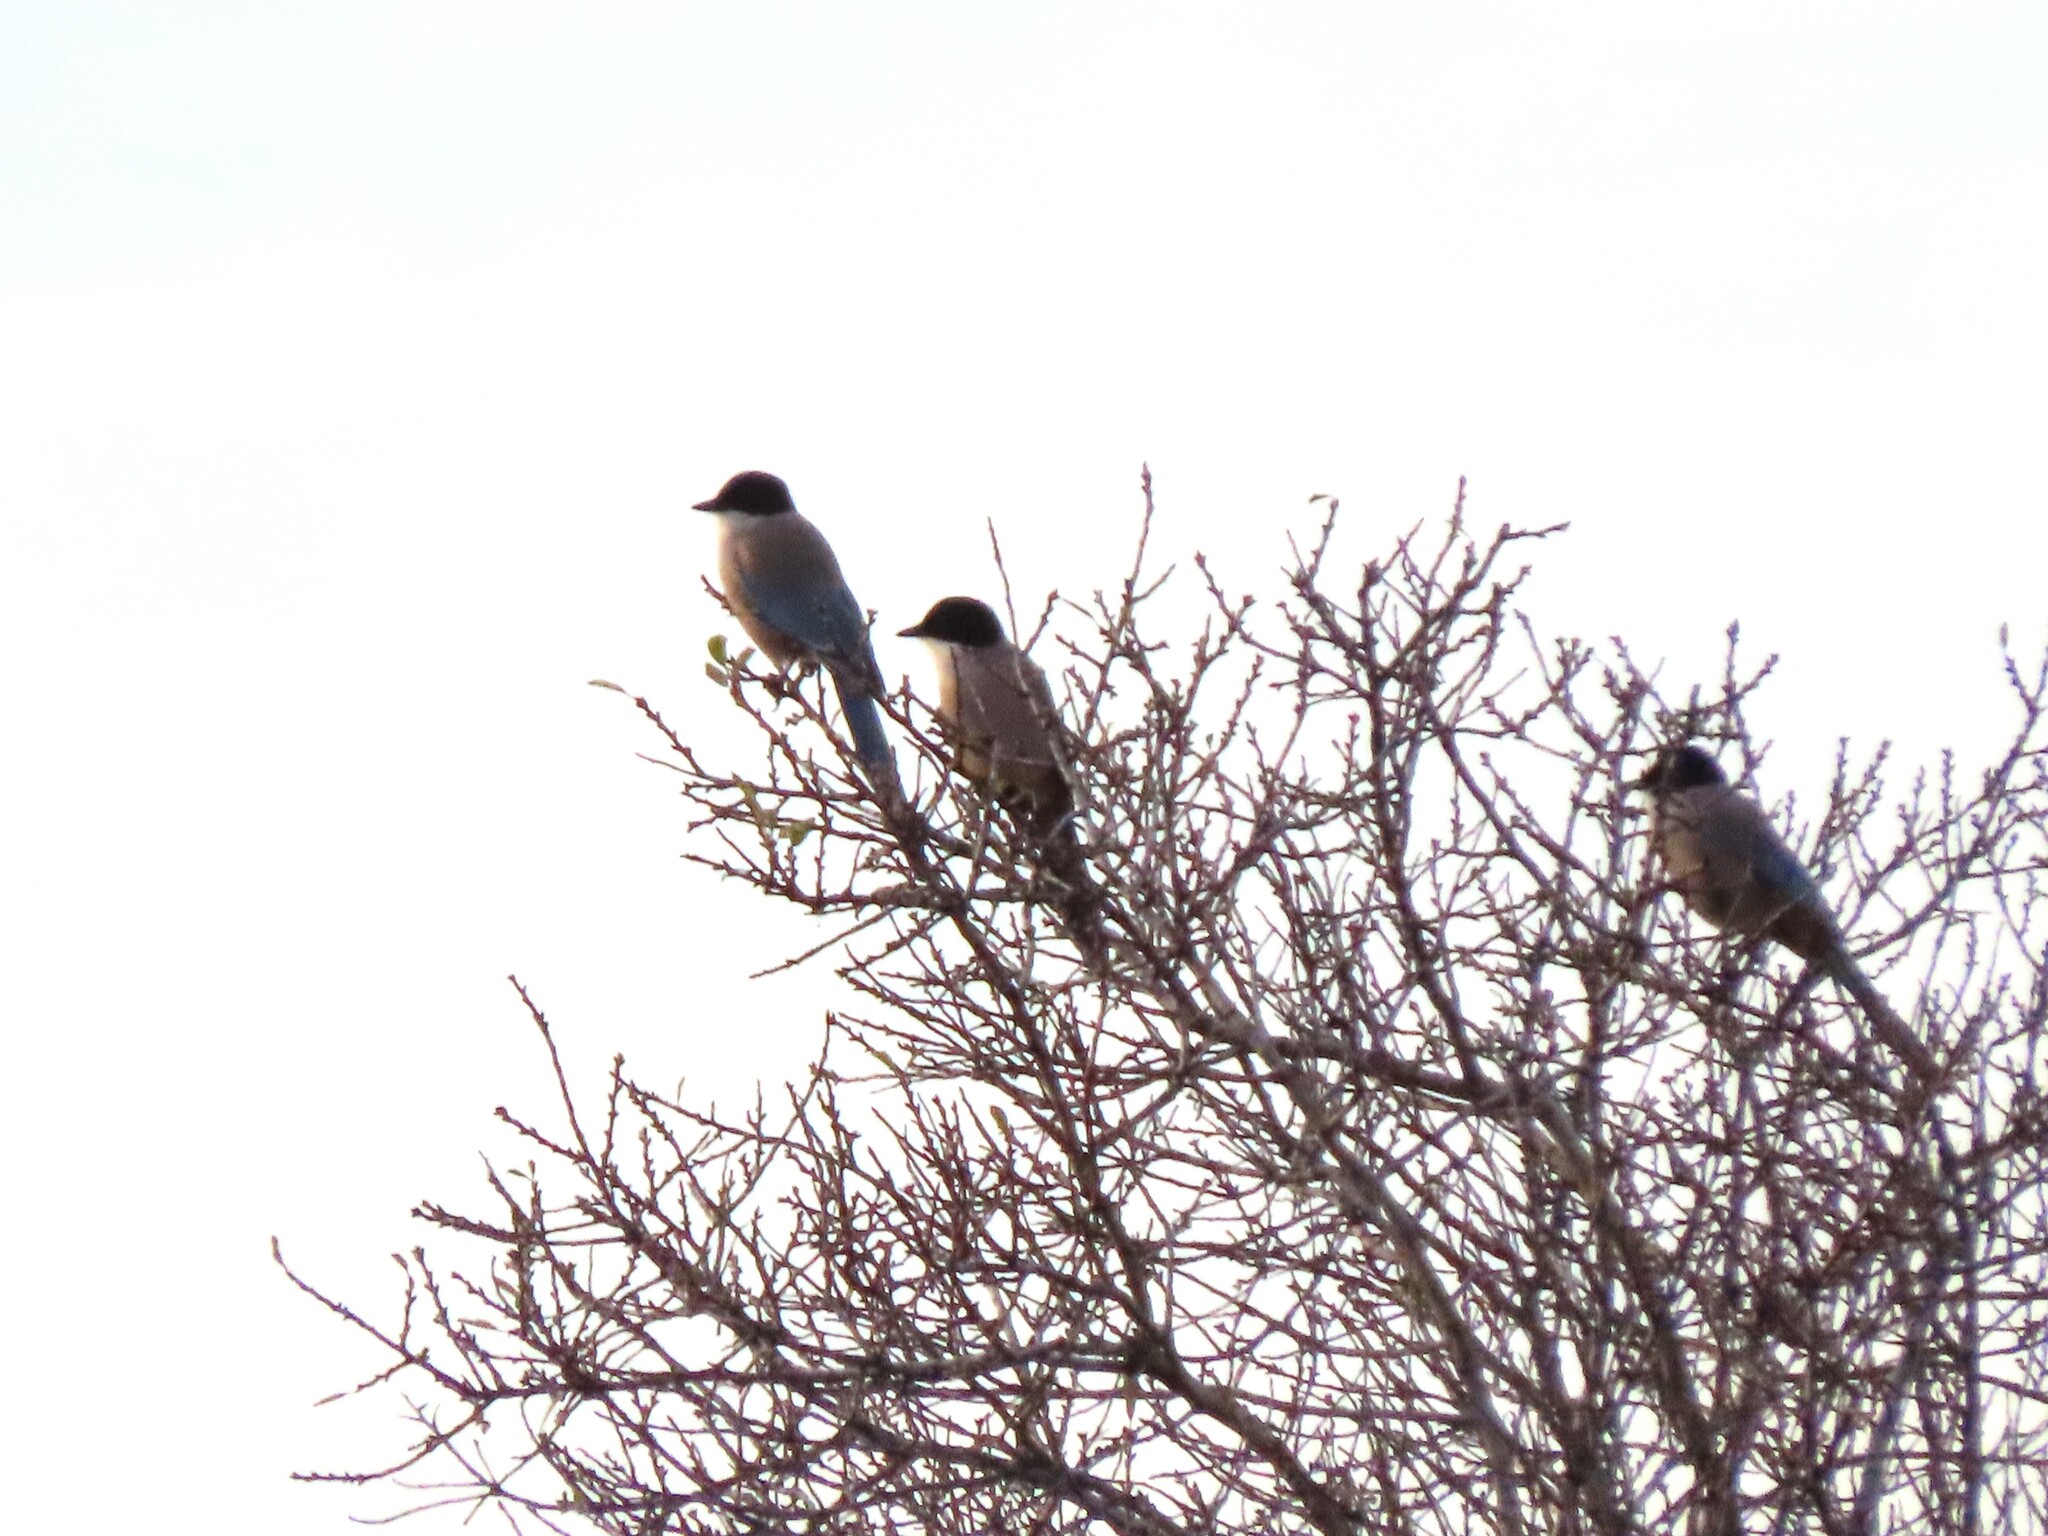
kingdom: Animalia
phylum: Chordata
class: Aves
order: Passeriformes
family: Corvidae
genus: Cyanopica
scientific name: Cyanopica cooki
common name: Iberian magpie
